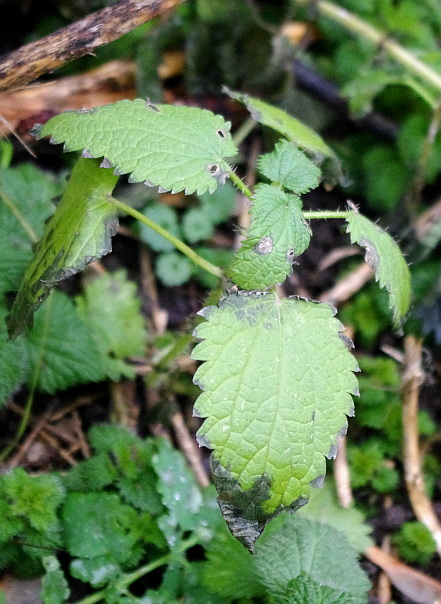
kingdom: Plantae
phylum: Tracheophyta
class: Magnoliopsida
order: Rosales
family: Urticaceae
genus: Urtica
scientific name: Urtica dioica
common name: Common nettle
